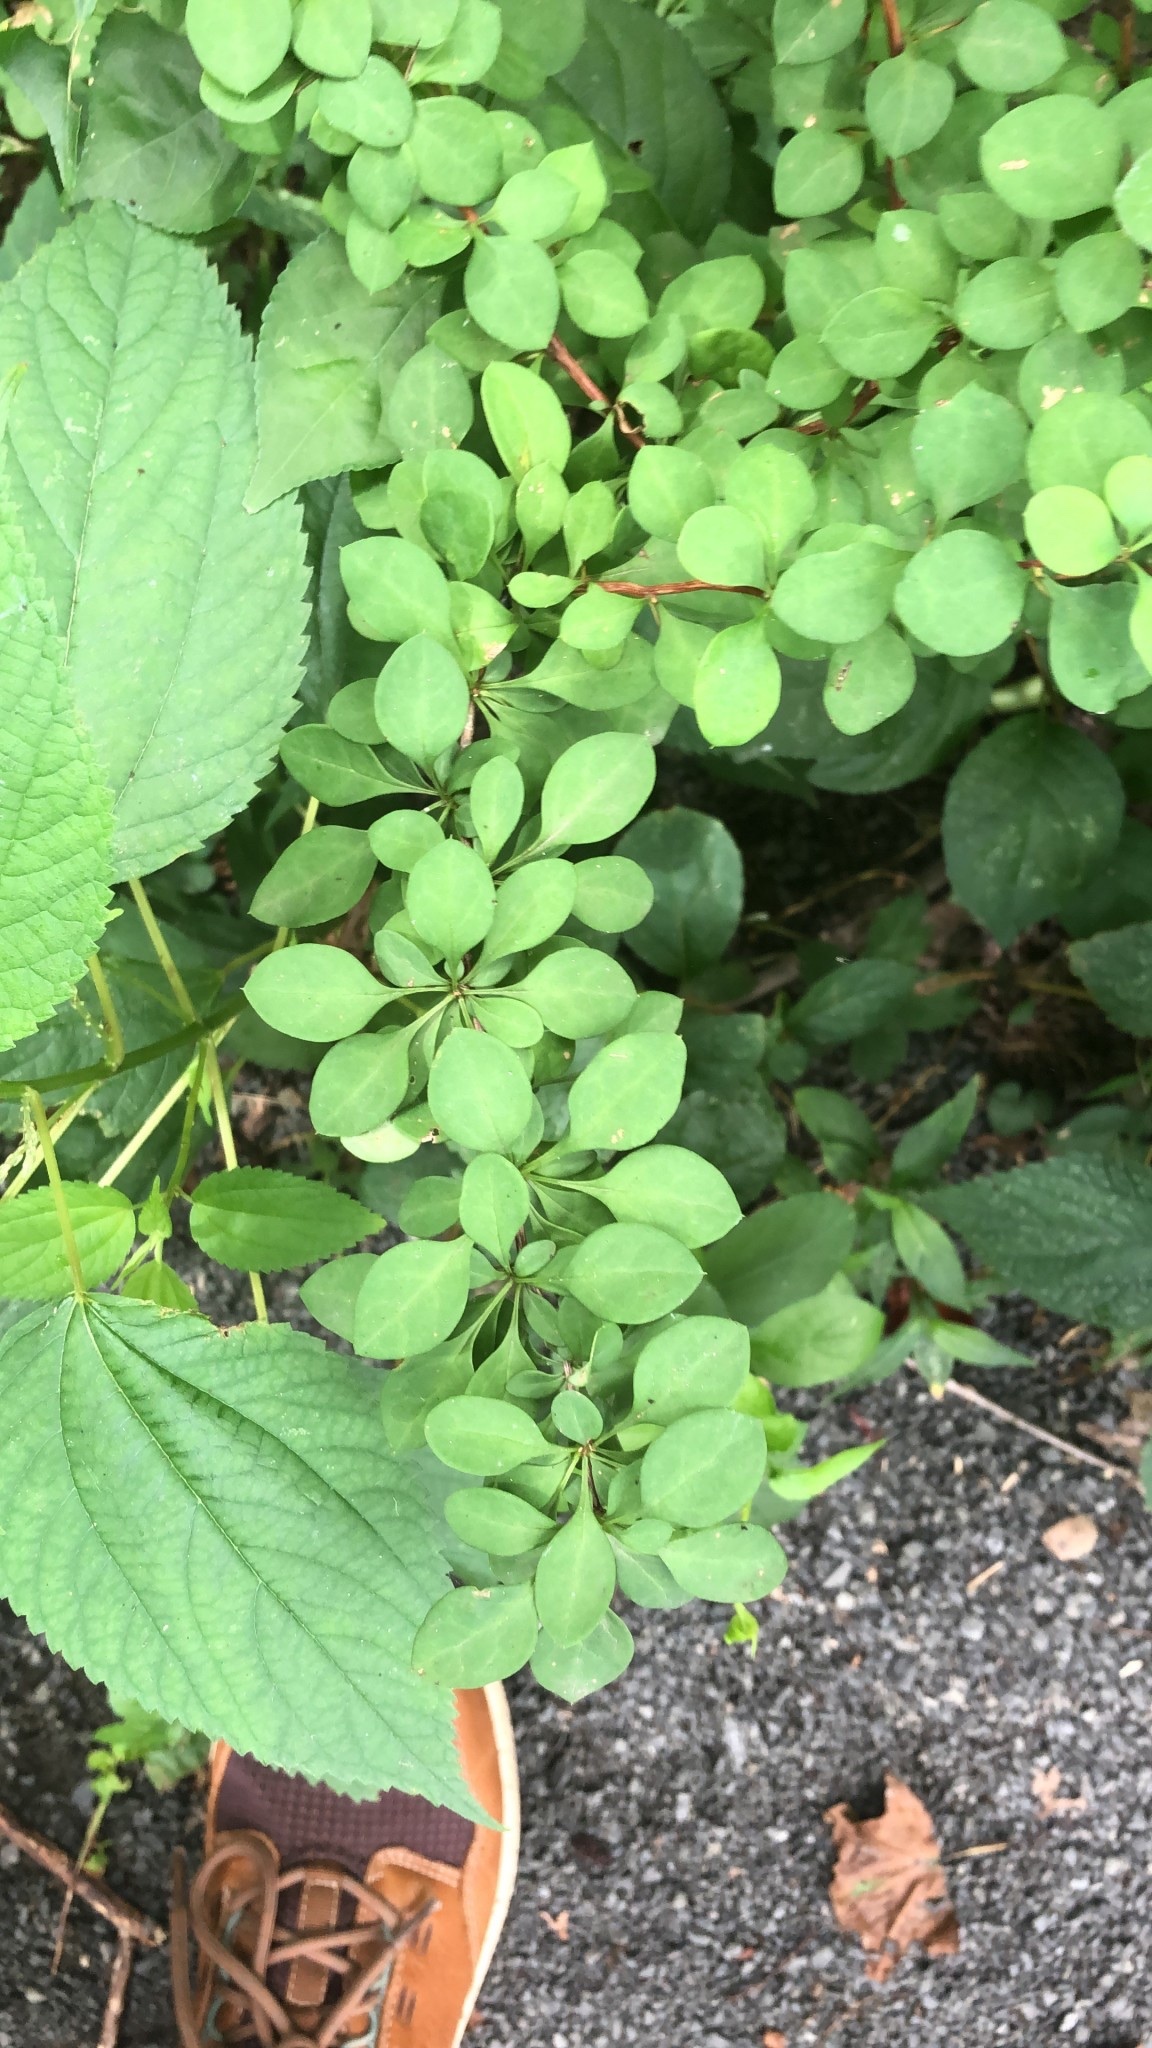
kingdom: Plantae
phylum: Tracheophyta
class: Magnoliopsida
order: Ranunculales
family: Berberidaceae
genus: Berberis
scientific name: Berberis thunbergii
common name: Japanese barberry
